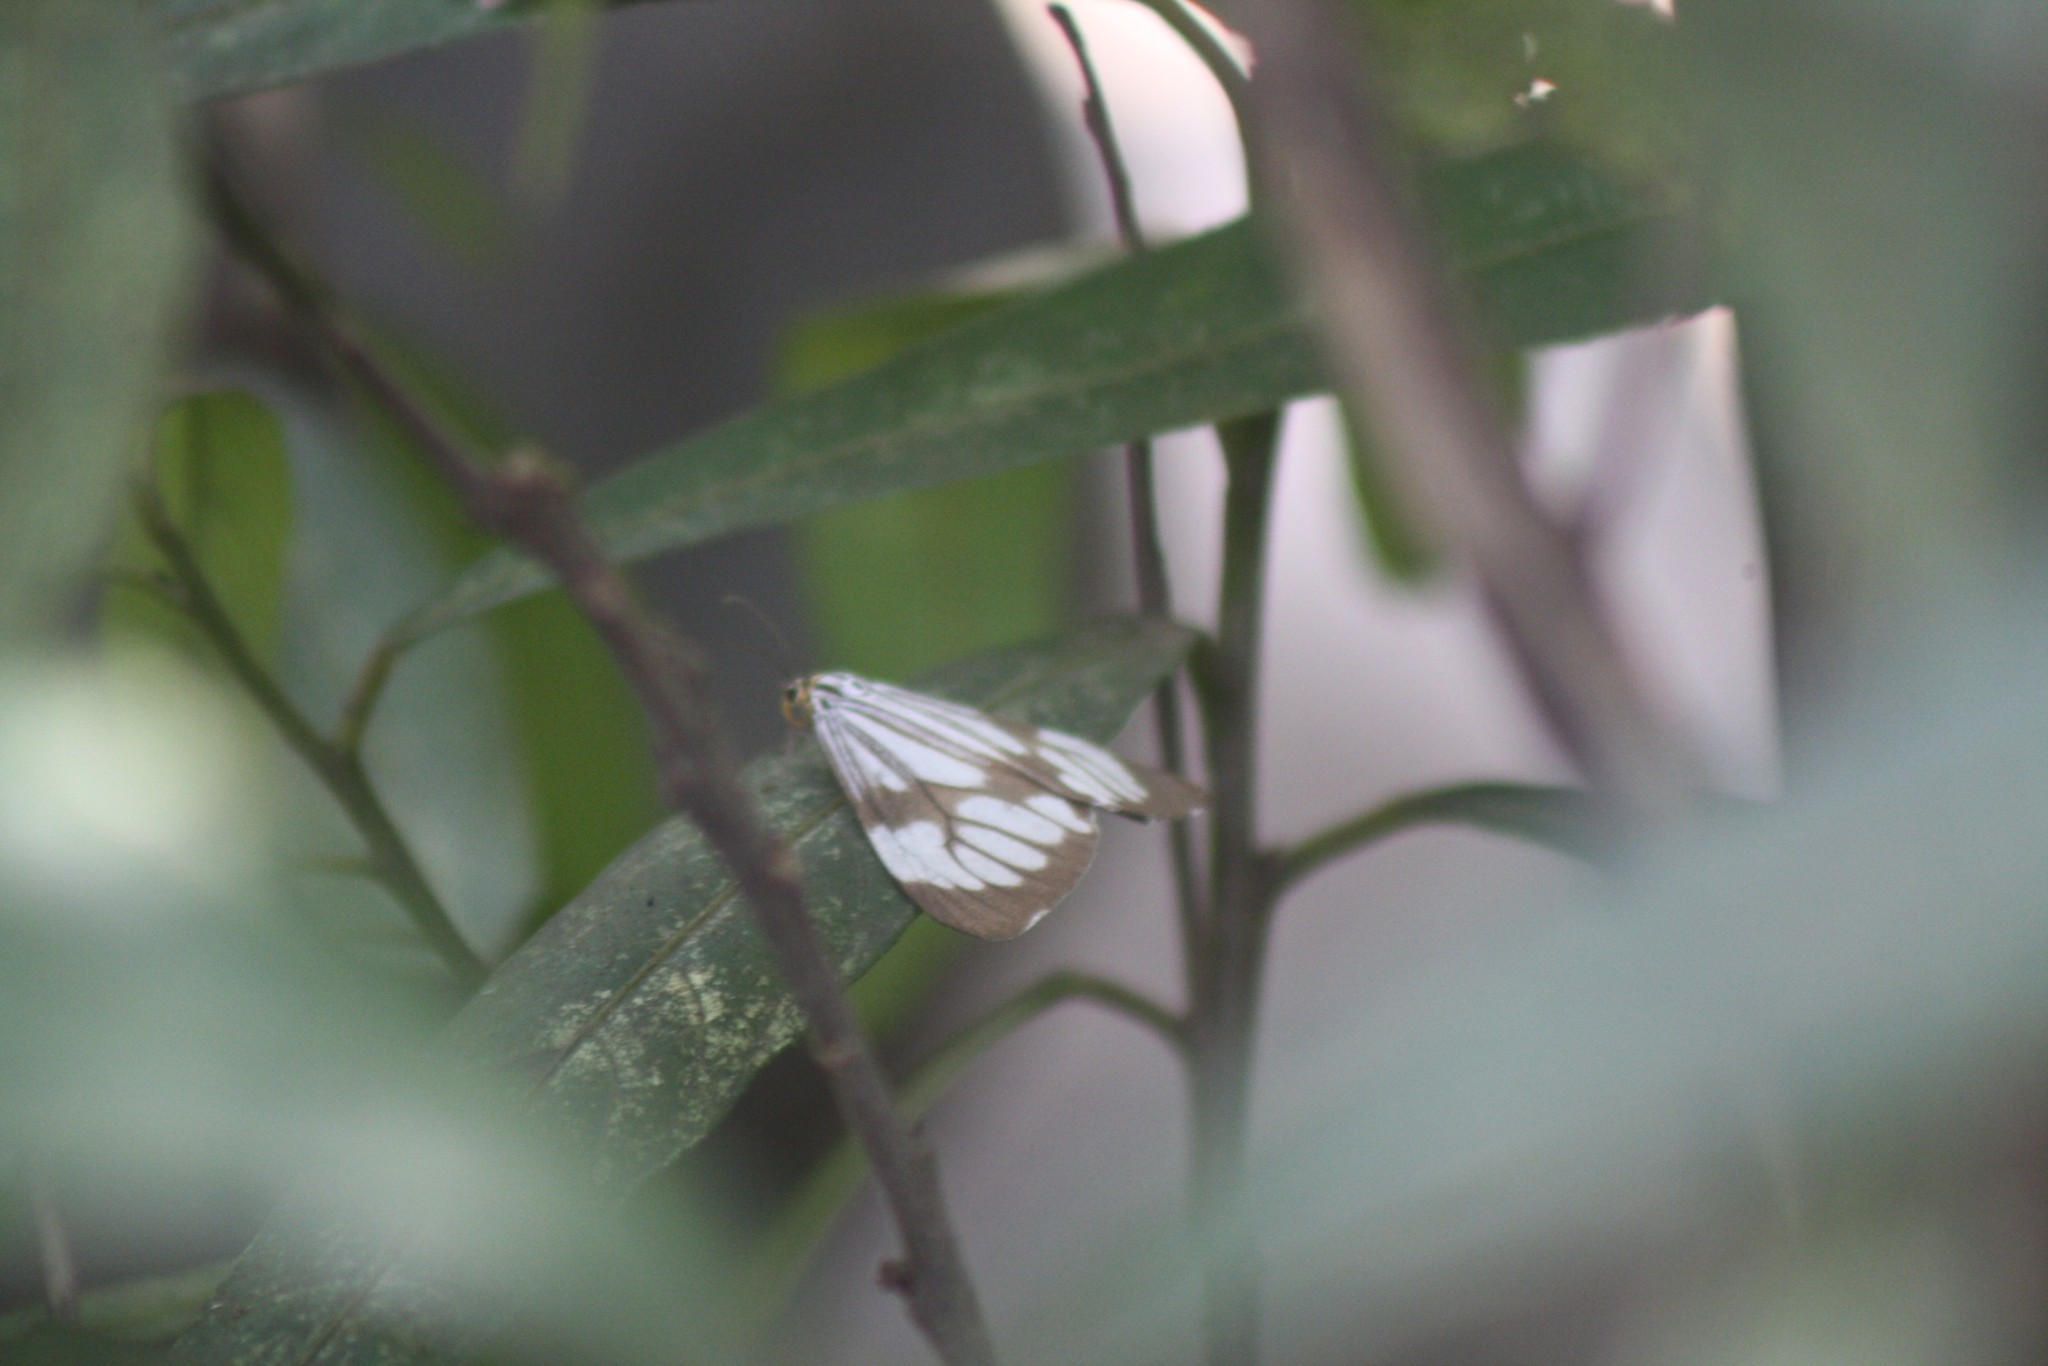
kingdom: Animalia
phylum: Arthropoda
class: Insecta
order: Lepidoptera
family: Erebidae
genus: Nyctemera
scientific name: Nyctemera coleta
